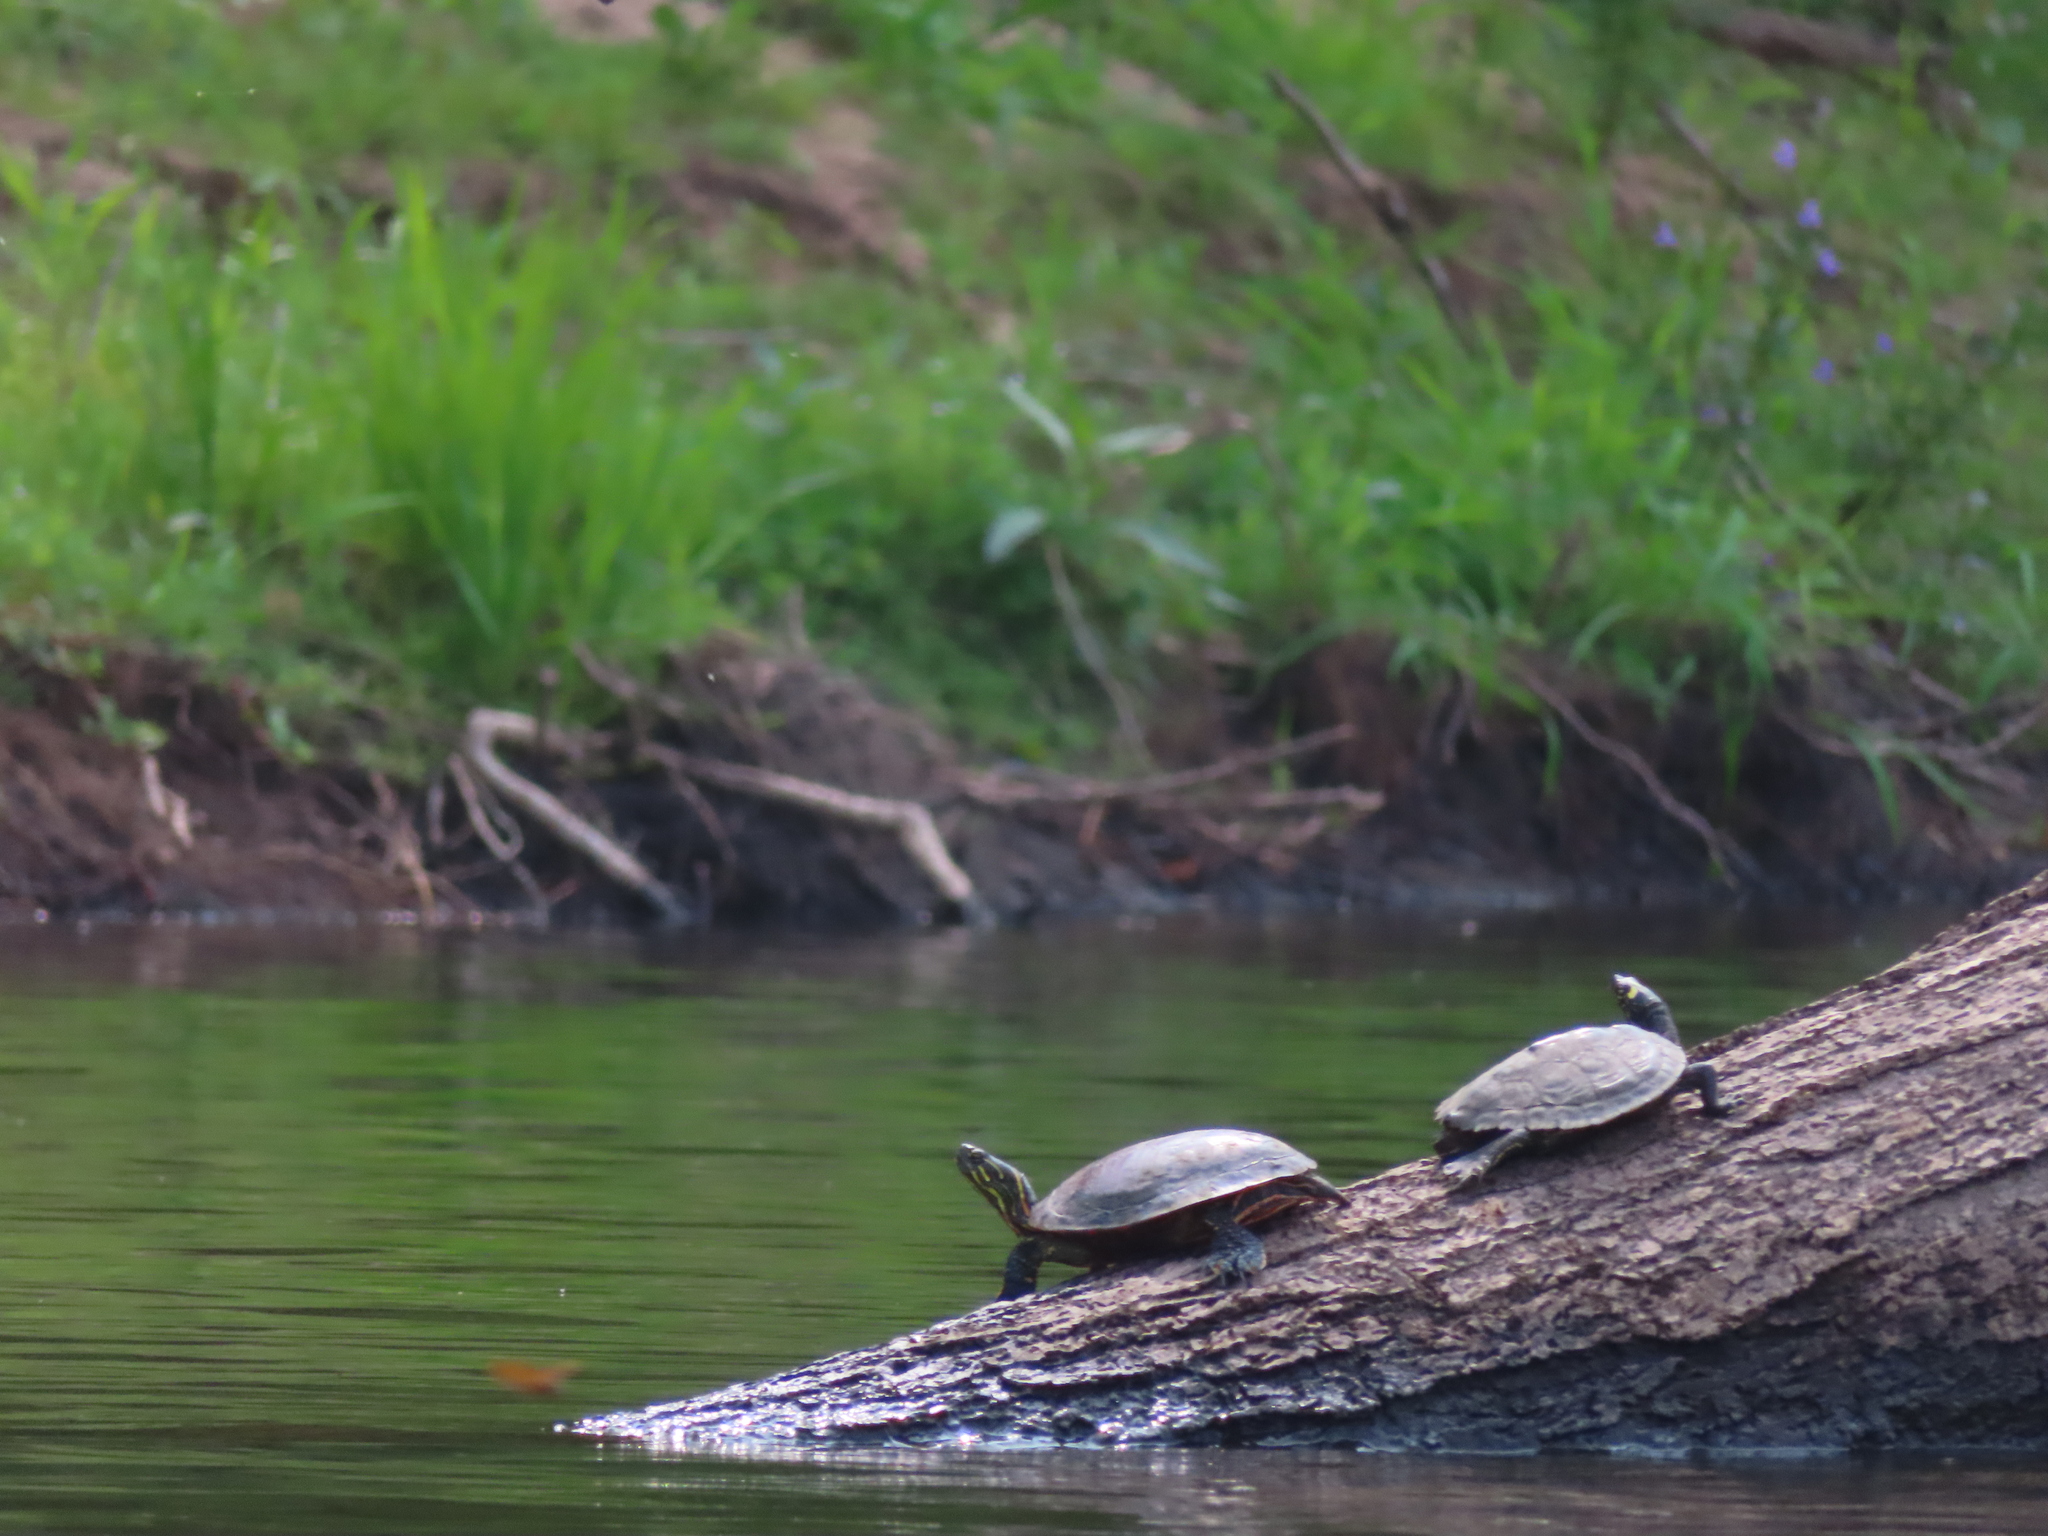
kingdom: Animalia
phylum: Chordata
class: Testudines
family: Emydidae
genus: Chrysemys
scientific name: Chrysemys picta
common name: Painted turtle
